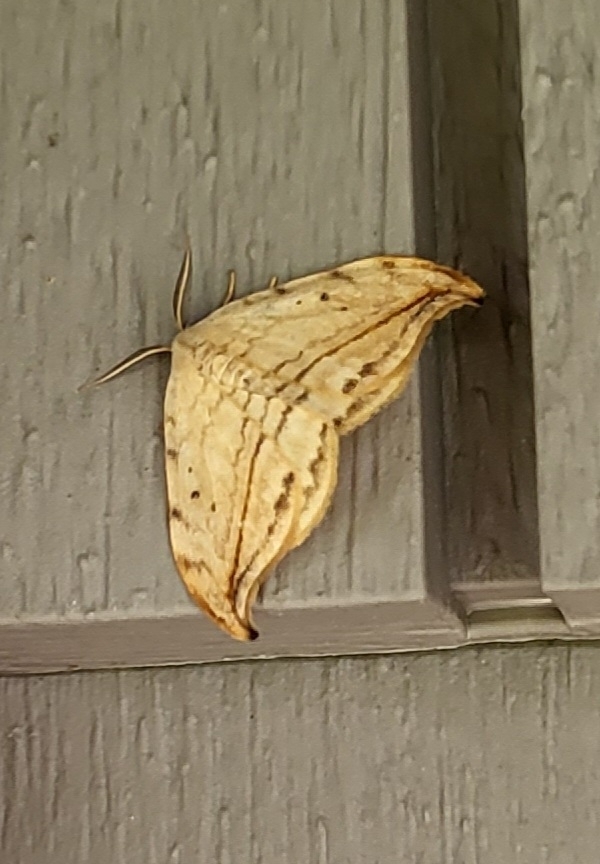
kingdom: Animalia
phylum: Arthropoda
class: Insecta
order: Lepidoptera
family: Drepanidae
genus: Drepana
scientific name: Drepana arcuata
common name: Arched hooktip moth
